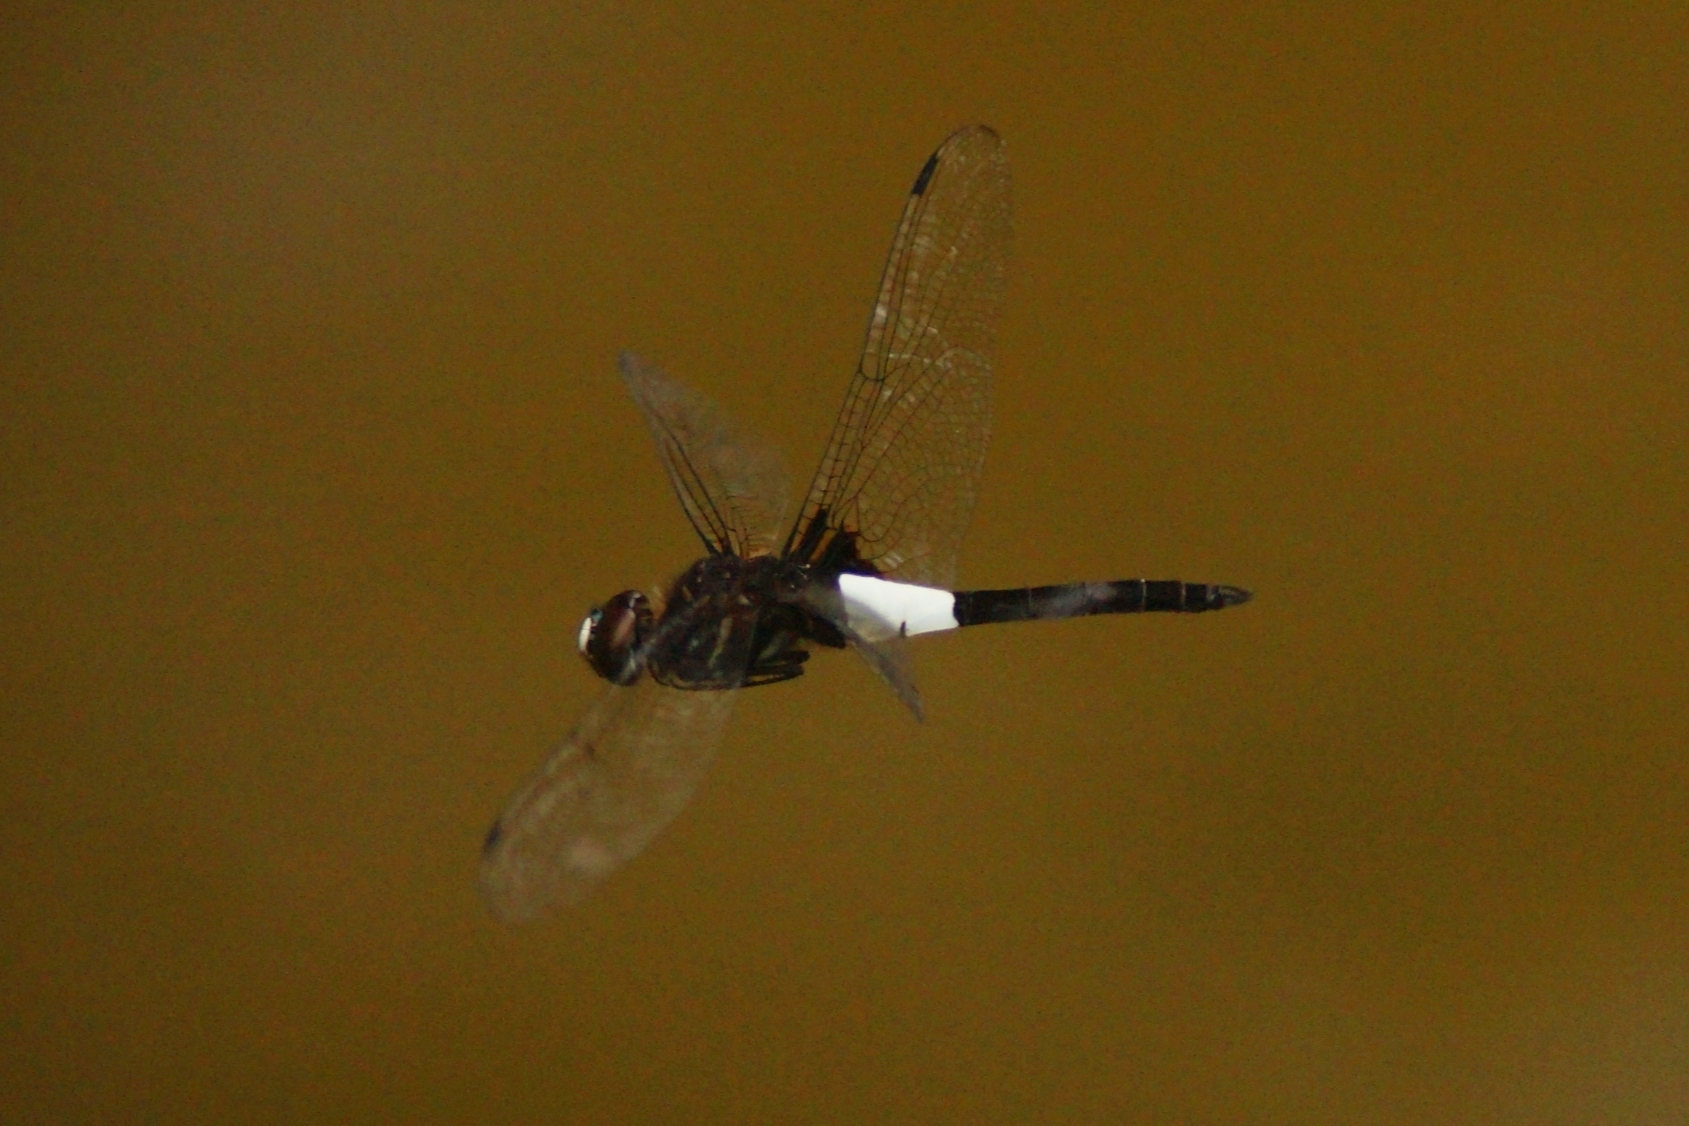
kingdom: Animalia
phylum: Arthropoda
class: Insecta
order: Odonata
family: Libellulidae
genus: Pseudothemis
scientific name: Pseudothemis zonata
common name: Pied skimmer
